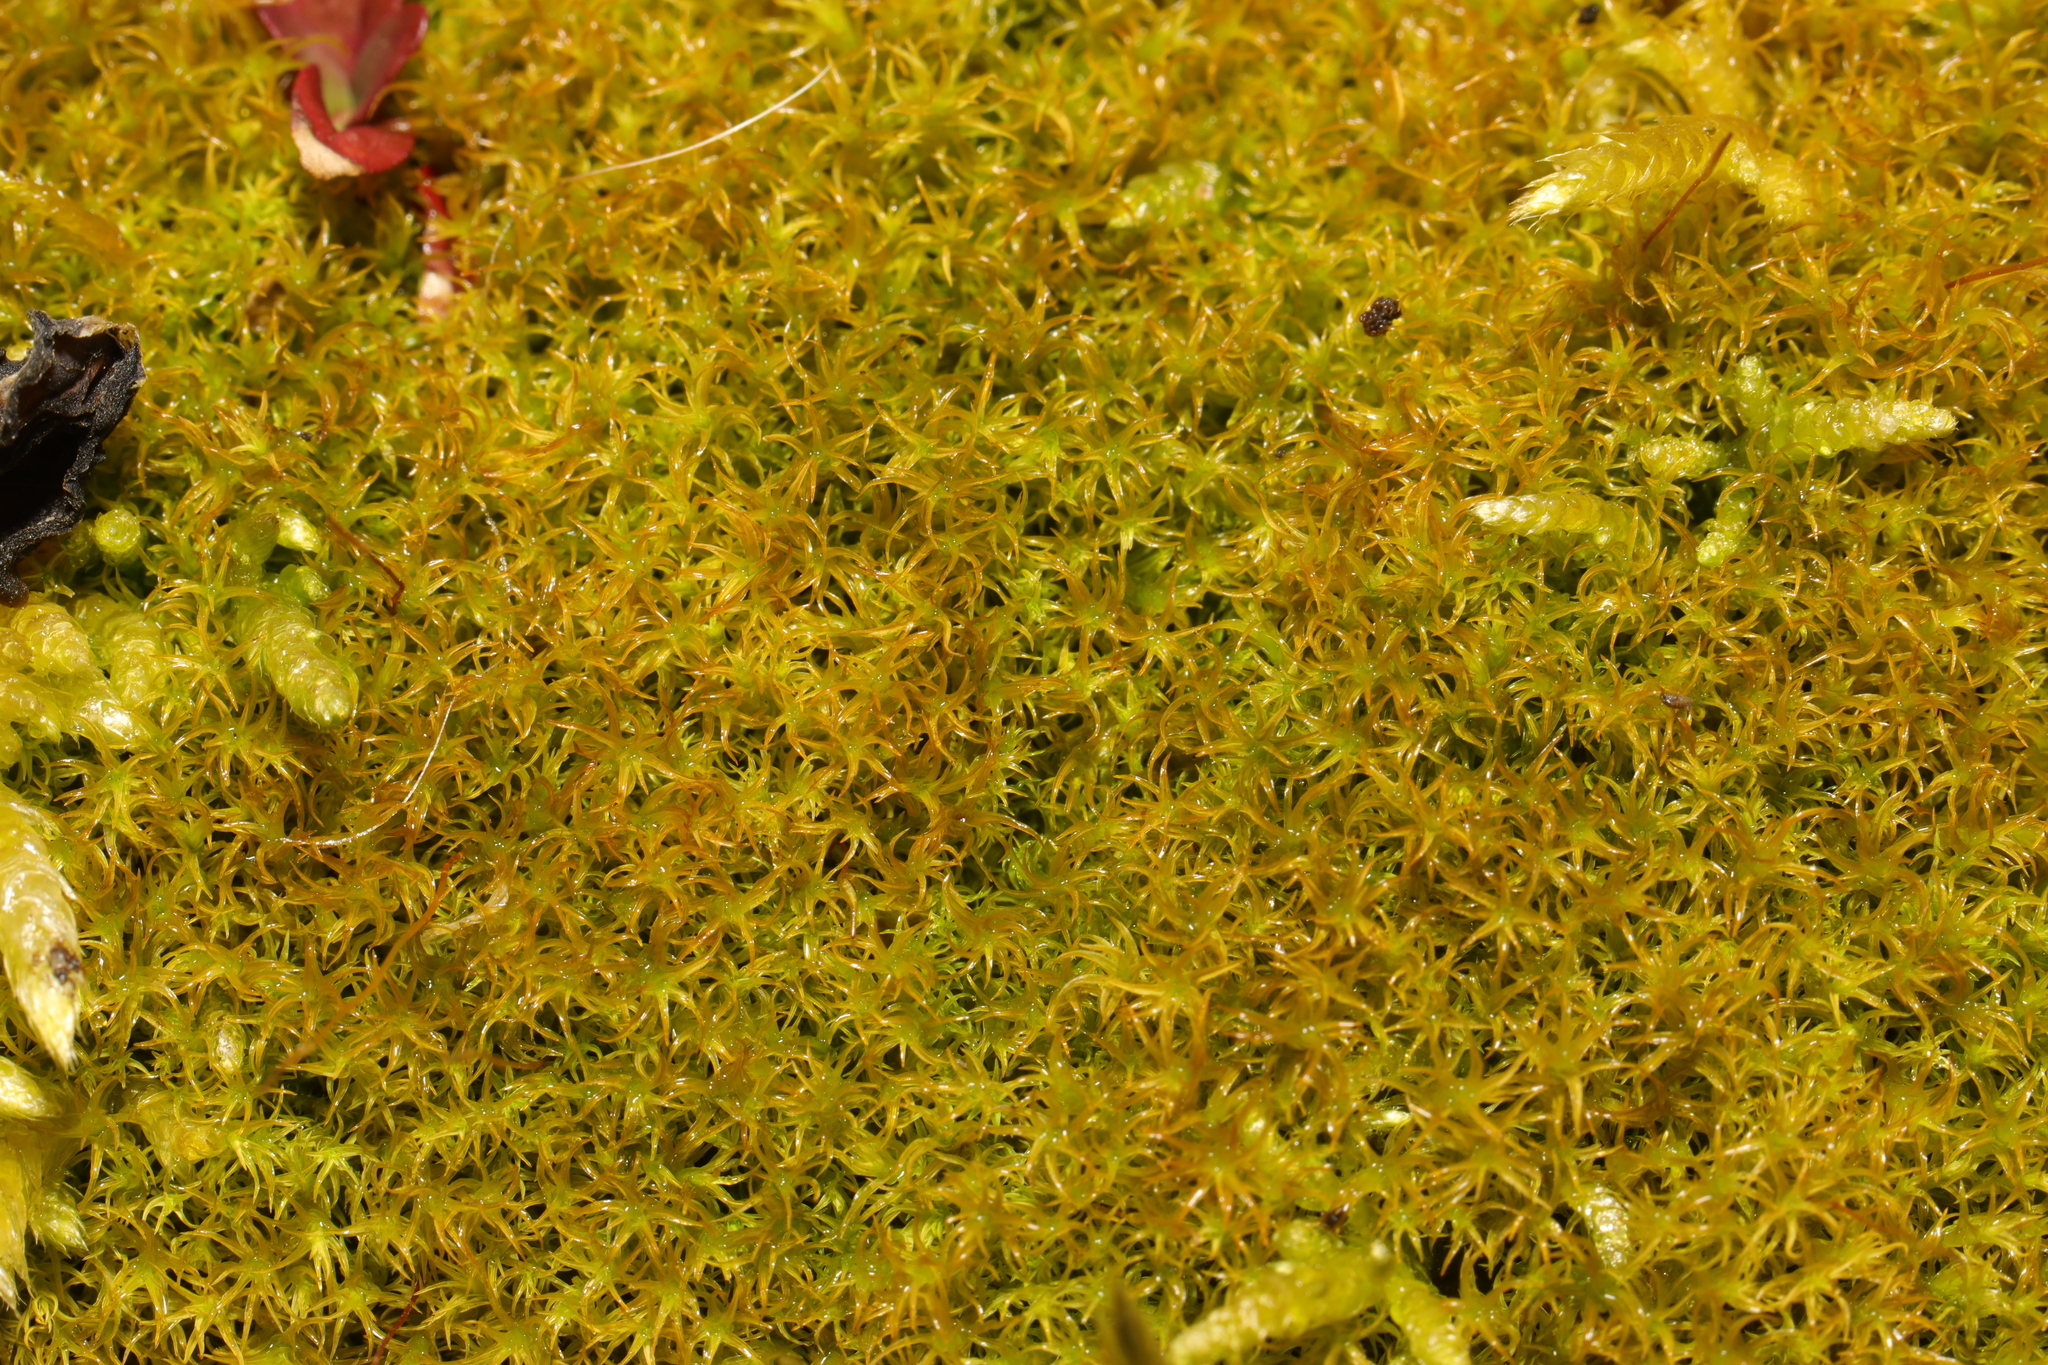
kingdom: Plantae
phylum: Bryophyta
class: Bryopsida
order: Pottiales
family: Pottiaceae
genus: Vinealobryum
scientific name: Vinealobryum insulanum
